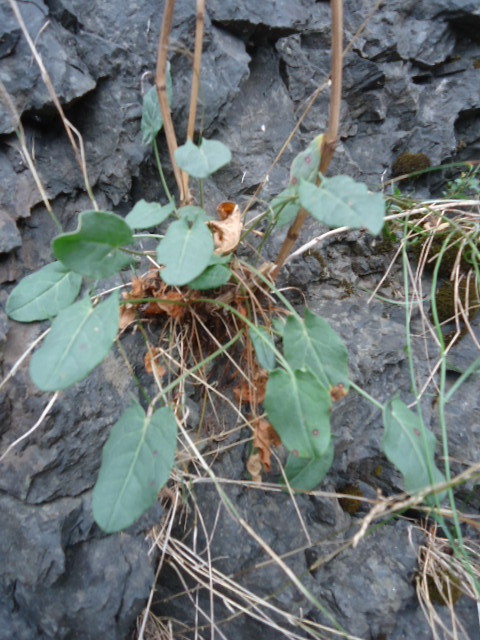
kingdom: Plantae
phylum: Tracheophyta
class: Magnoliopsida
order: Caryophyllales
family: Polygonaceae
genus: Rumex
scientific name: Rumex acetosa
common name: Garden sorrel
